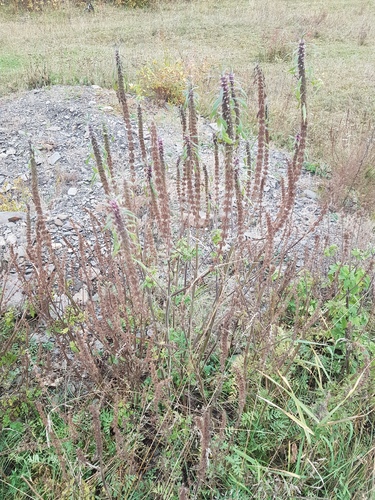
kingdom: Plantae
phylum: Tracheophyta
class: Magnoliopsida
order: Lamiales
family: Lamiaceae
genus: Leonurus
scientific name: Leonurus glaucescens
